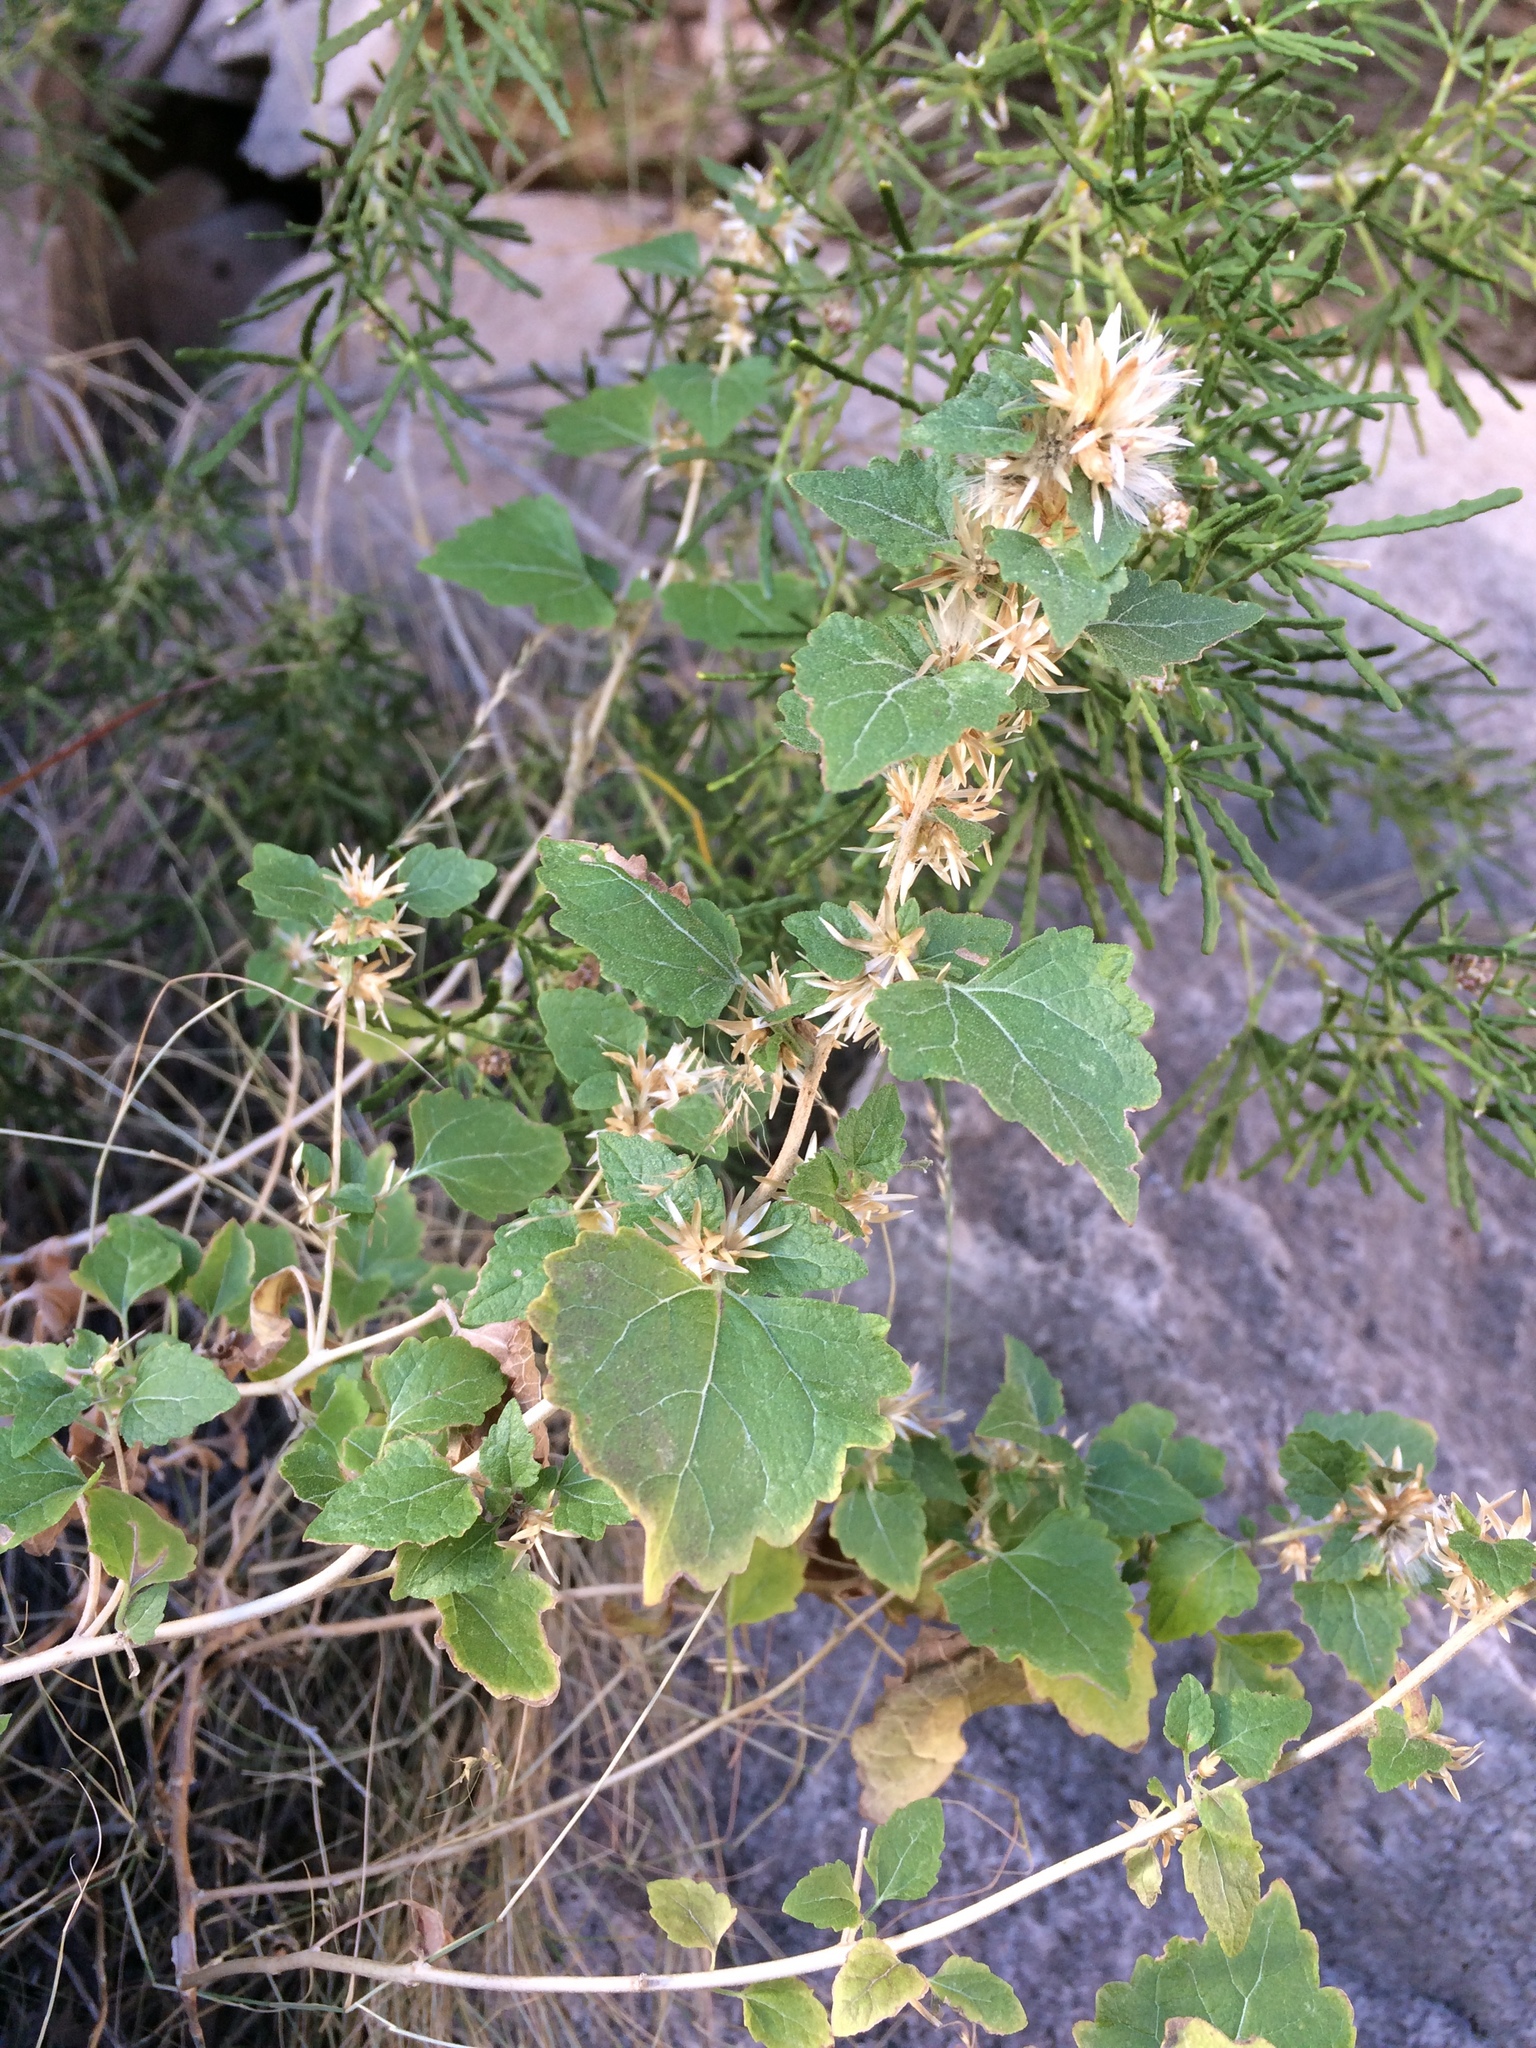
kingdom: Plantae
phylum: Tracheophyta
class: Magnoliopsida
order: Asterales
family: Asteraceae
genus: Brickellia
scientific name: Brickellia californica
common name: California brickellbush
